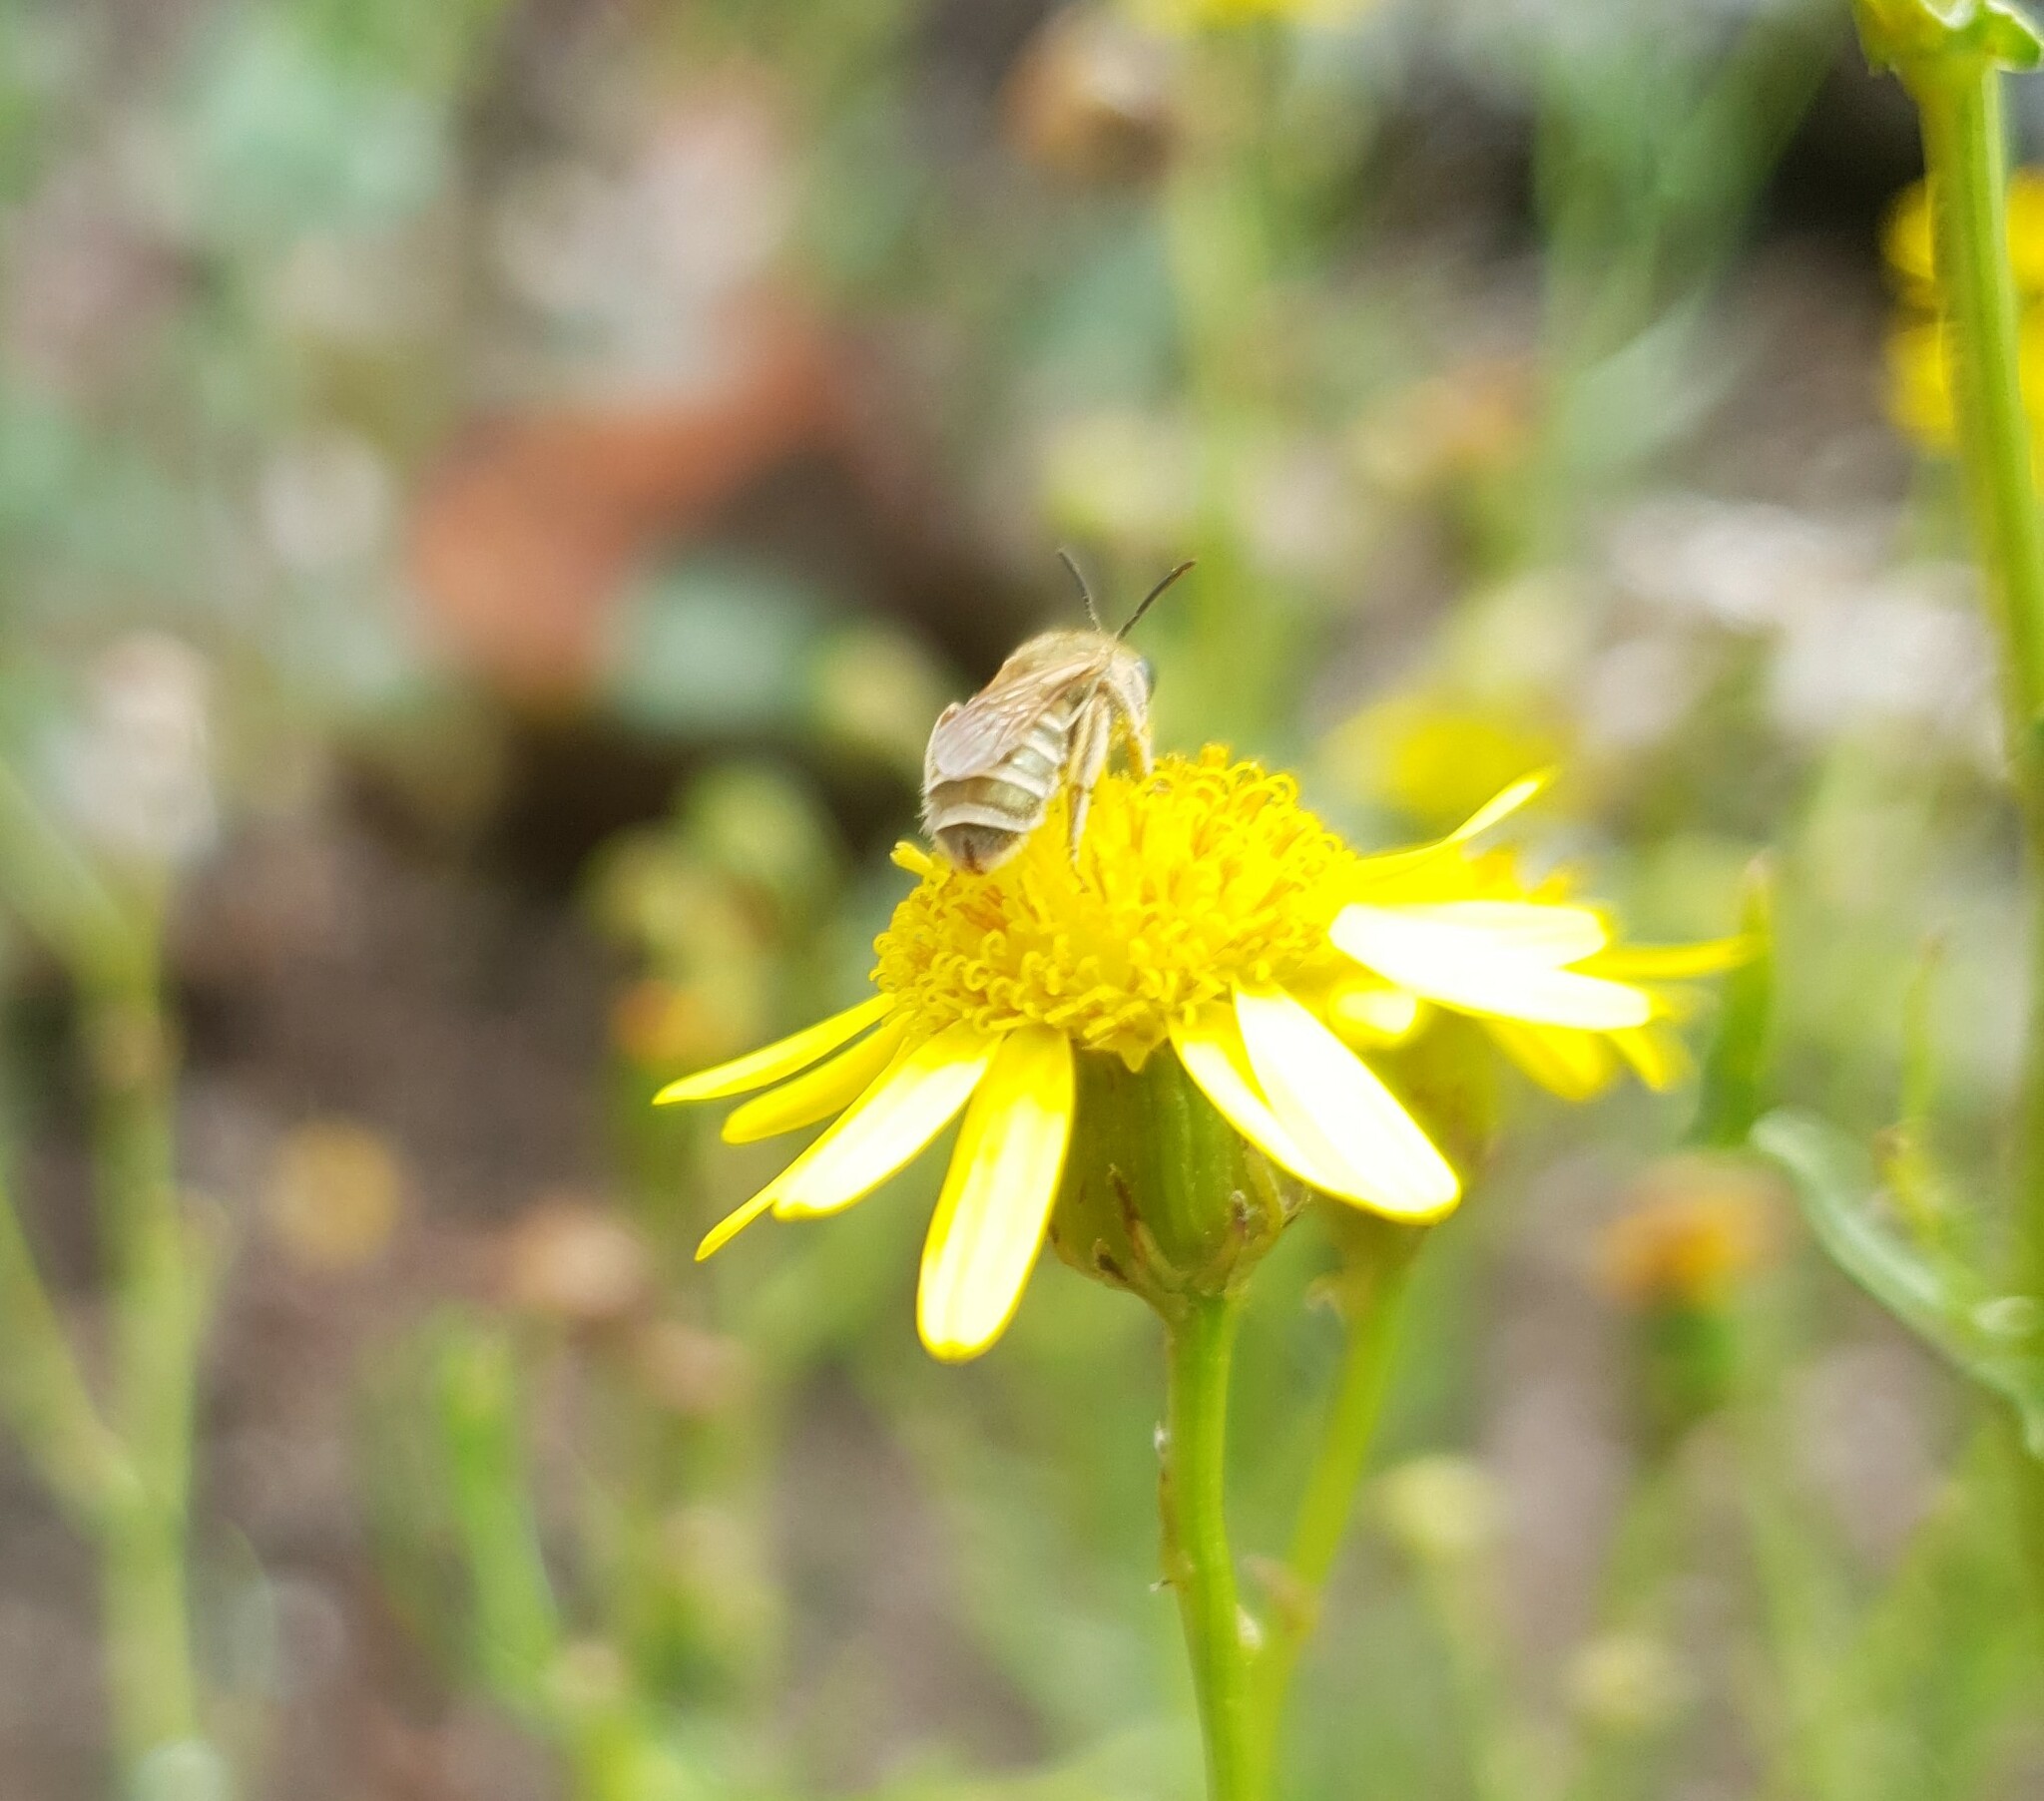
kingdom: Animalia
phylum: Arthropoda
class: Insecta
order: Hymenoptera
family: Halictidae
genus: Halictus
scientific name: Halictus subauratus
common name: Golden furrow bee
